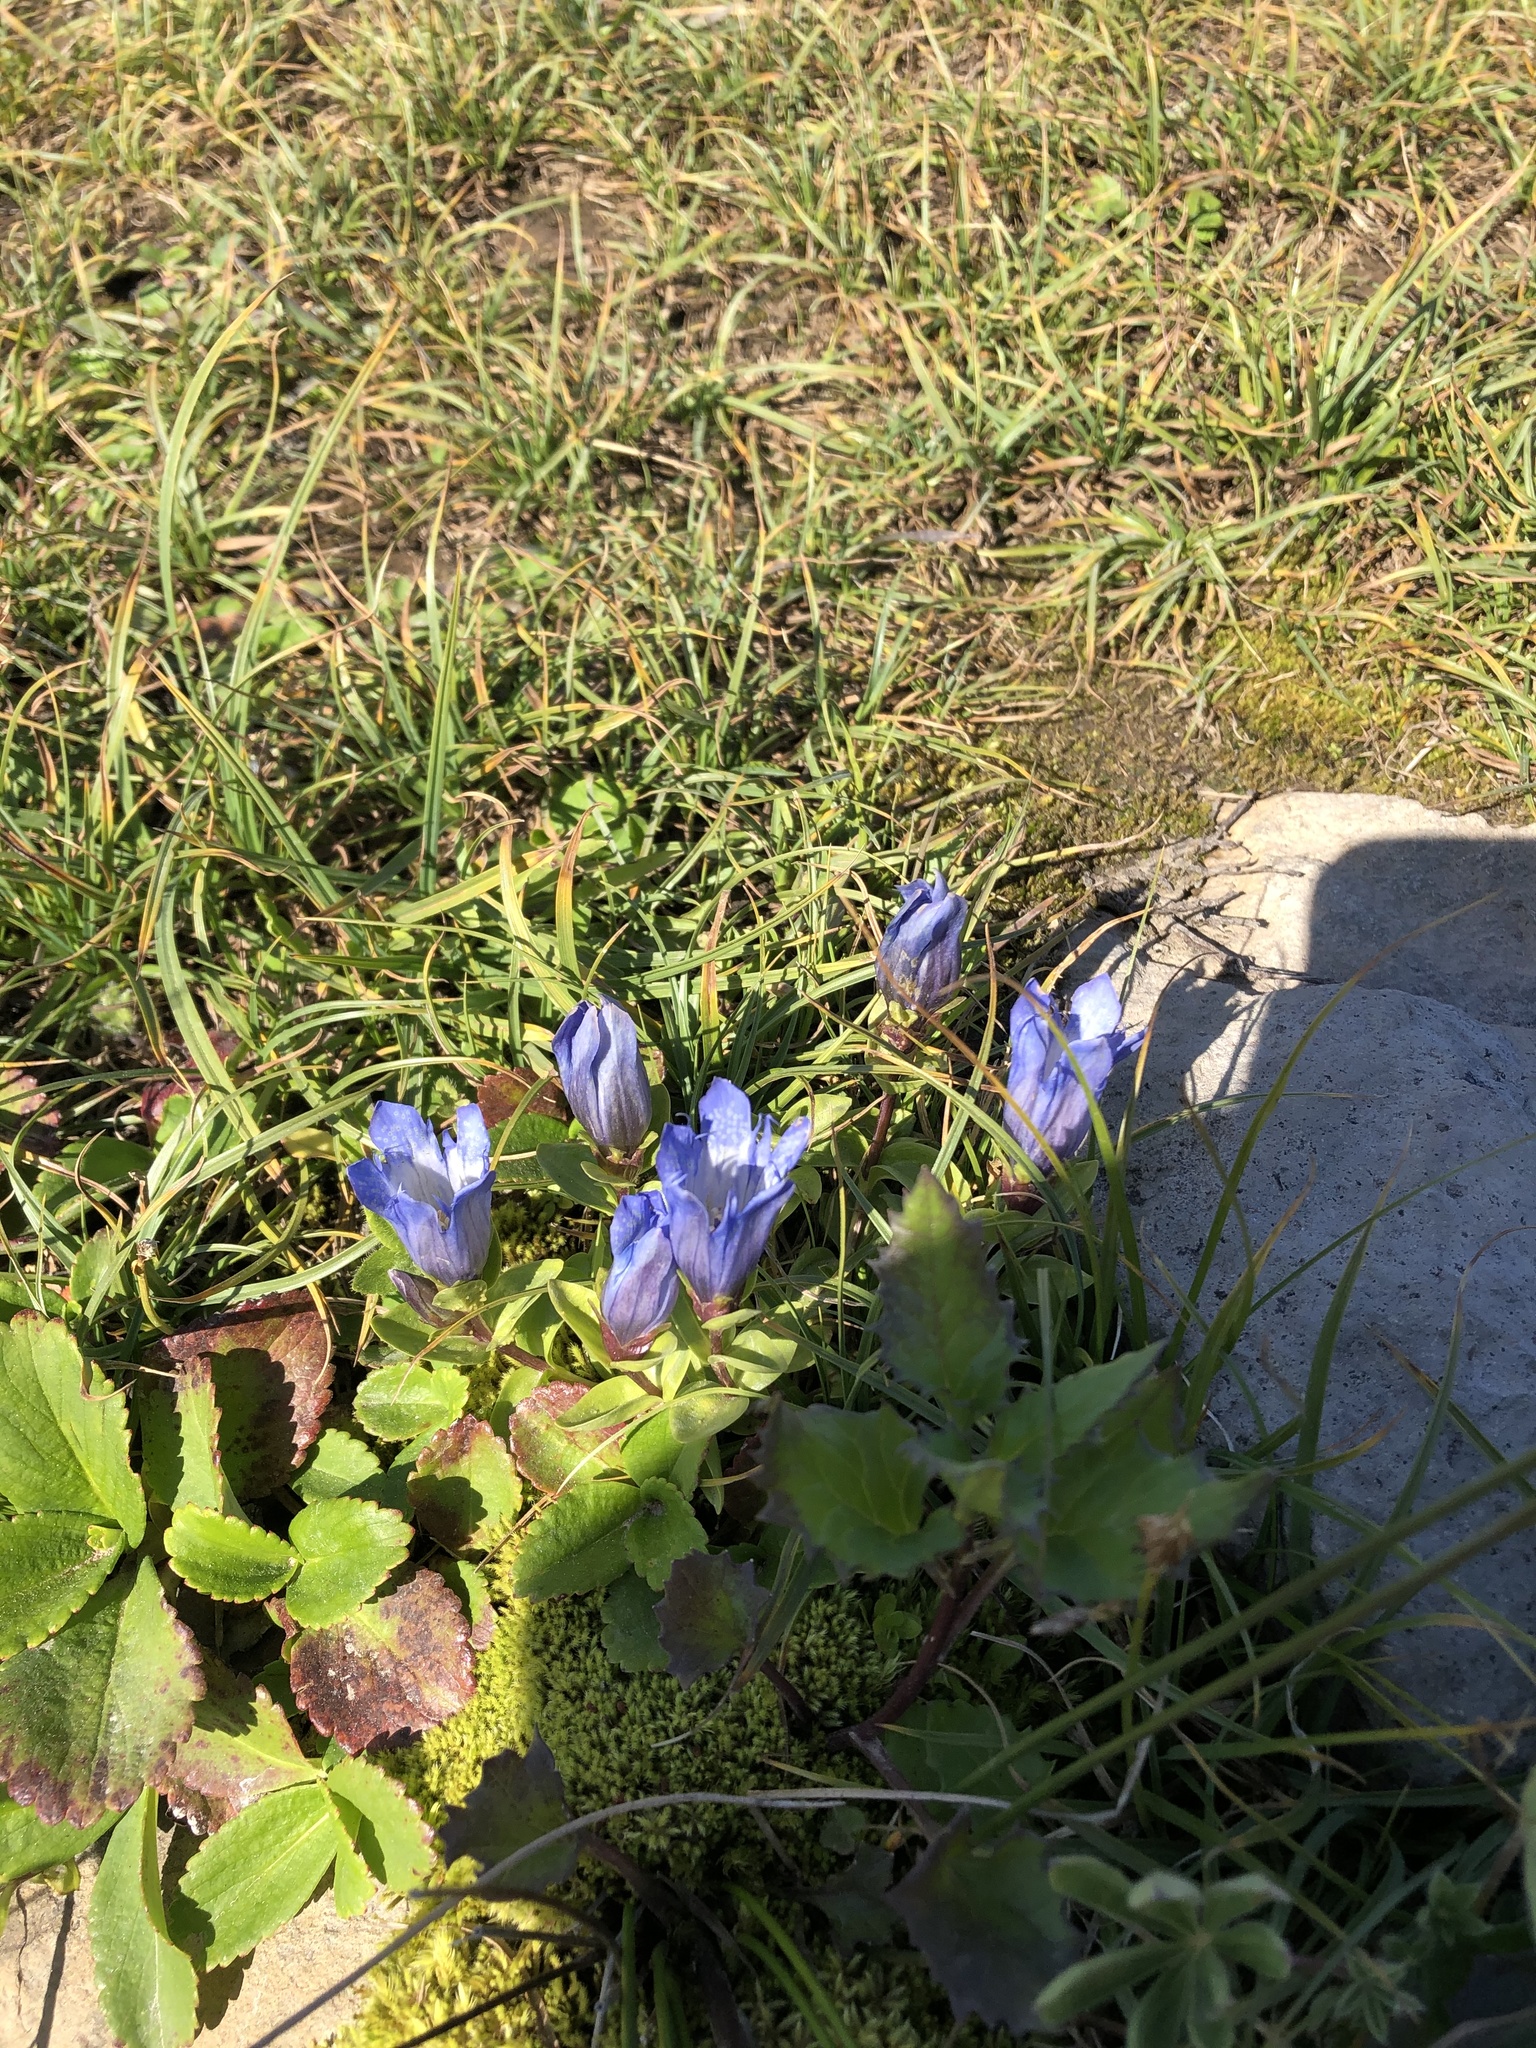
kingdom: Plantae
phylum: Tracheophyta
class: Magnoliopsida
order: Gentianales
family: Gentianaceae
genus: Gentiana
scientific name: Gentiana calycosa
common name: Rainier pleated gentian
